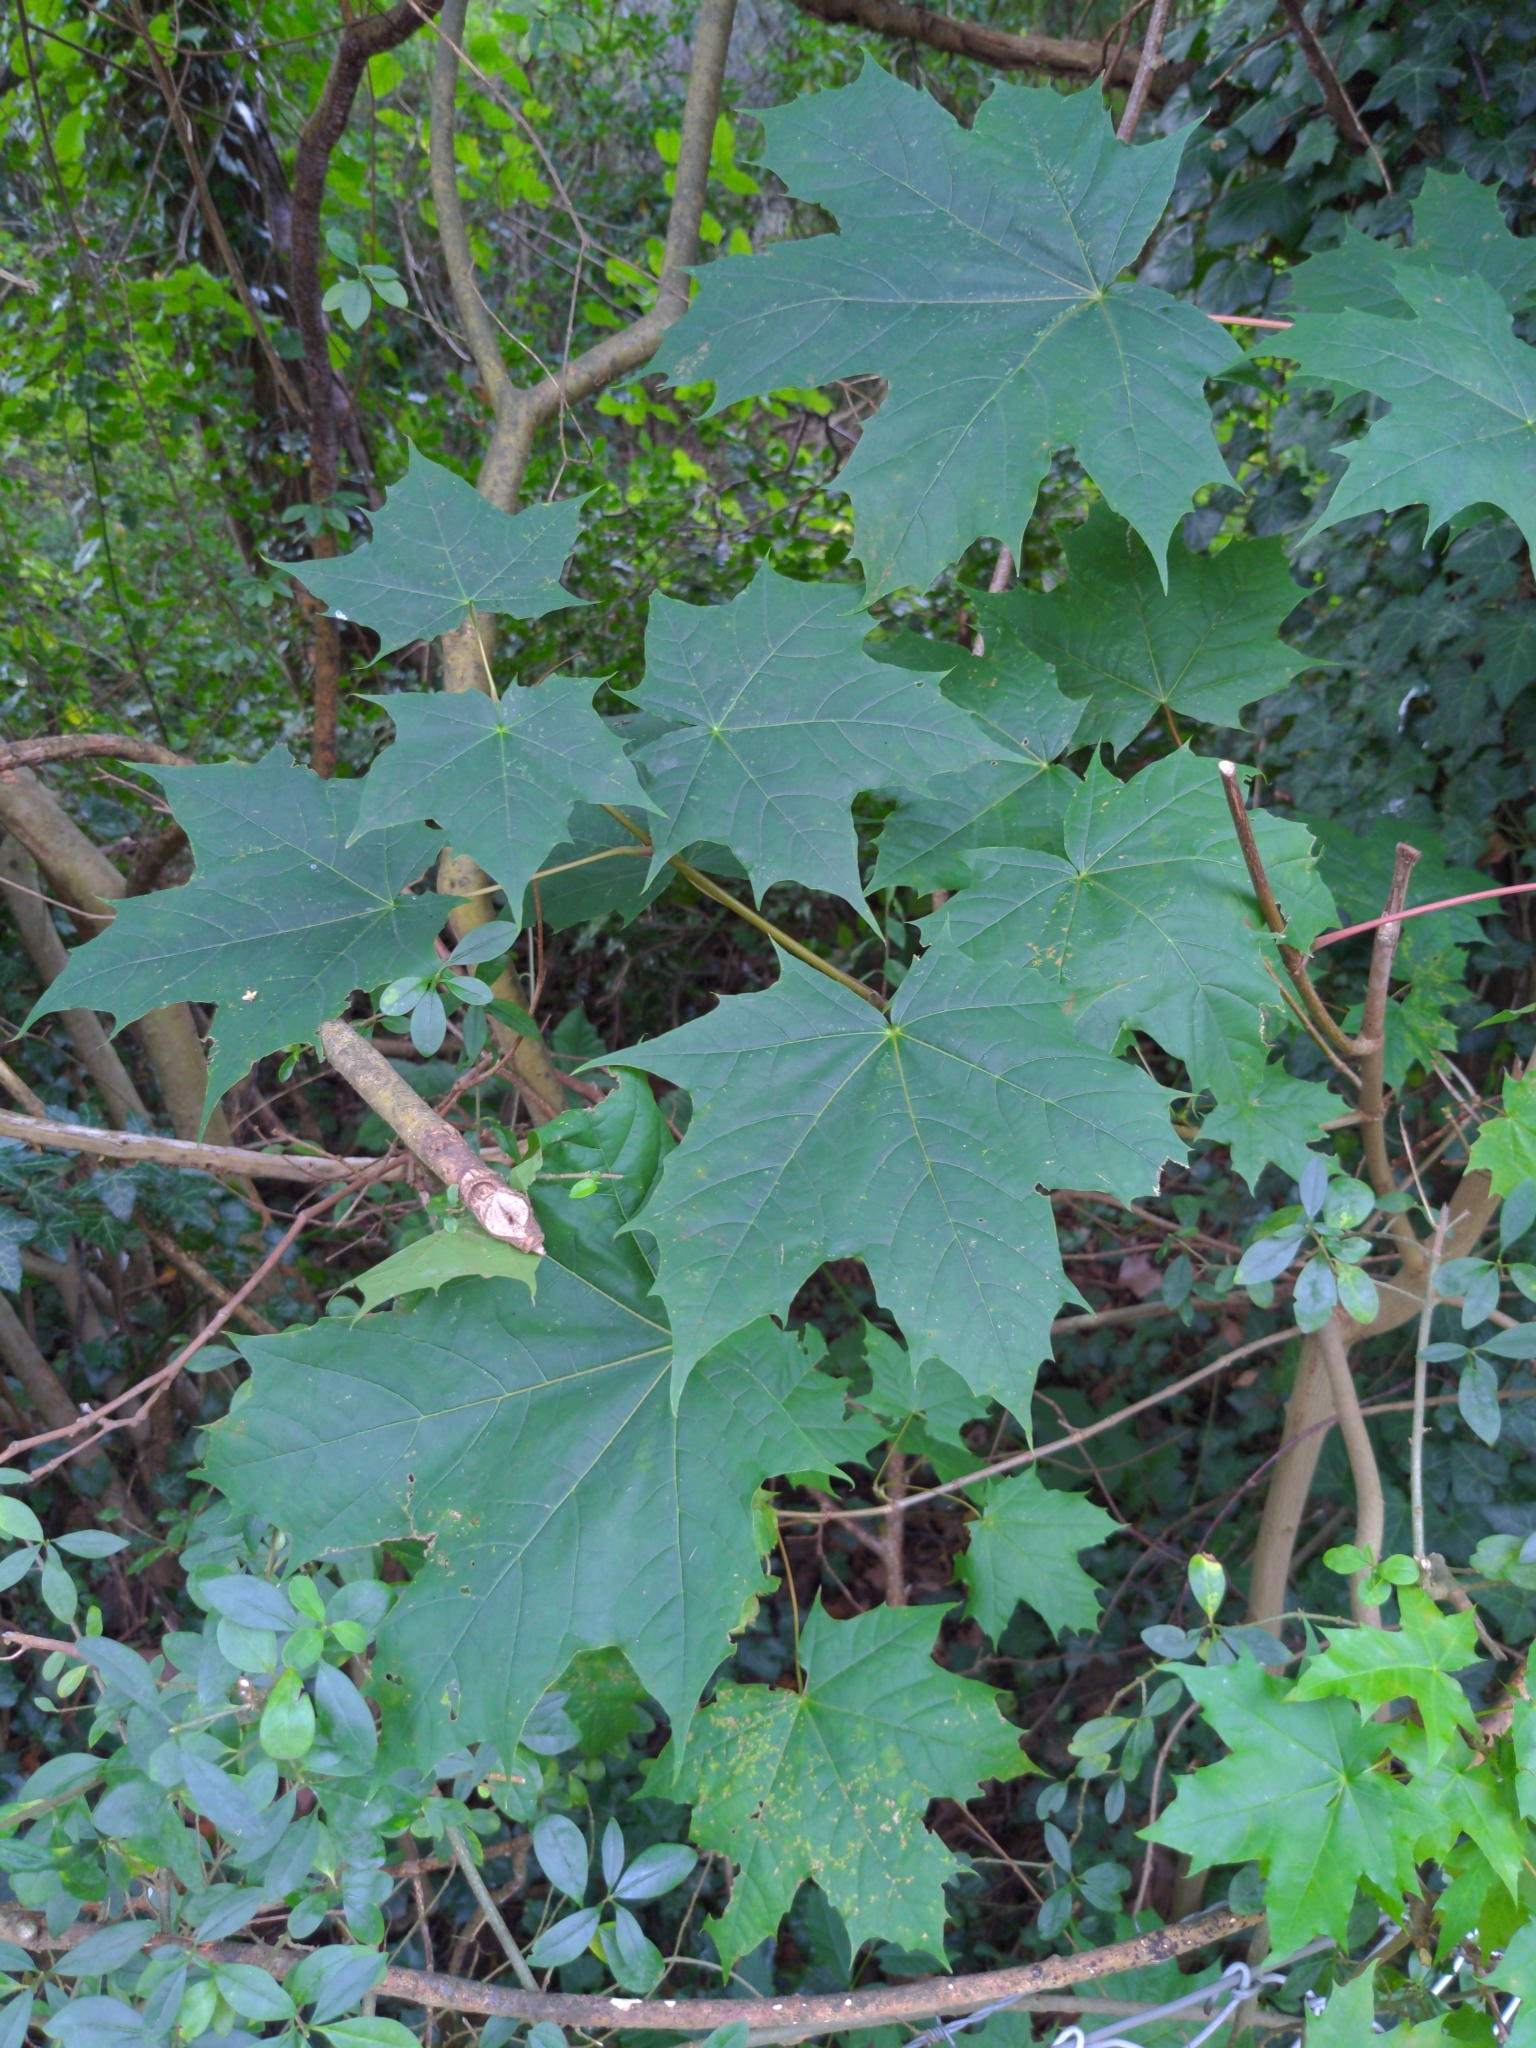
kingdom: Plantae
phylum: Tracheophyta
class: Magnoliopsida
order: Sapindales
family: Sapindaceae
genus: Acer
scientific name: Acer platanoides
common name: Norway maple
